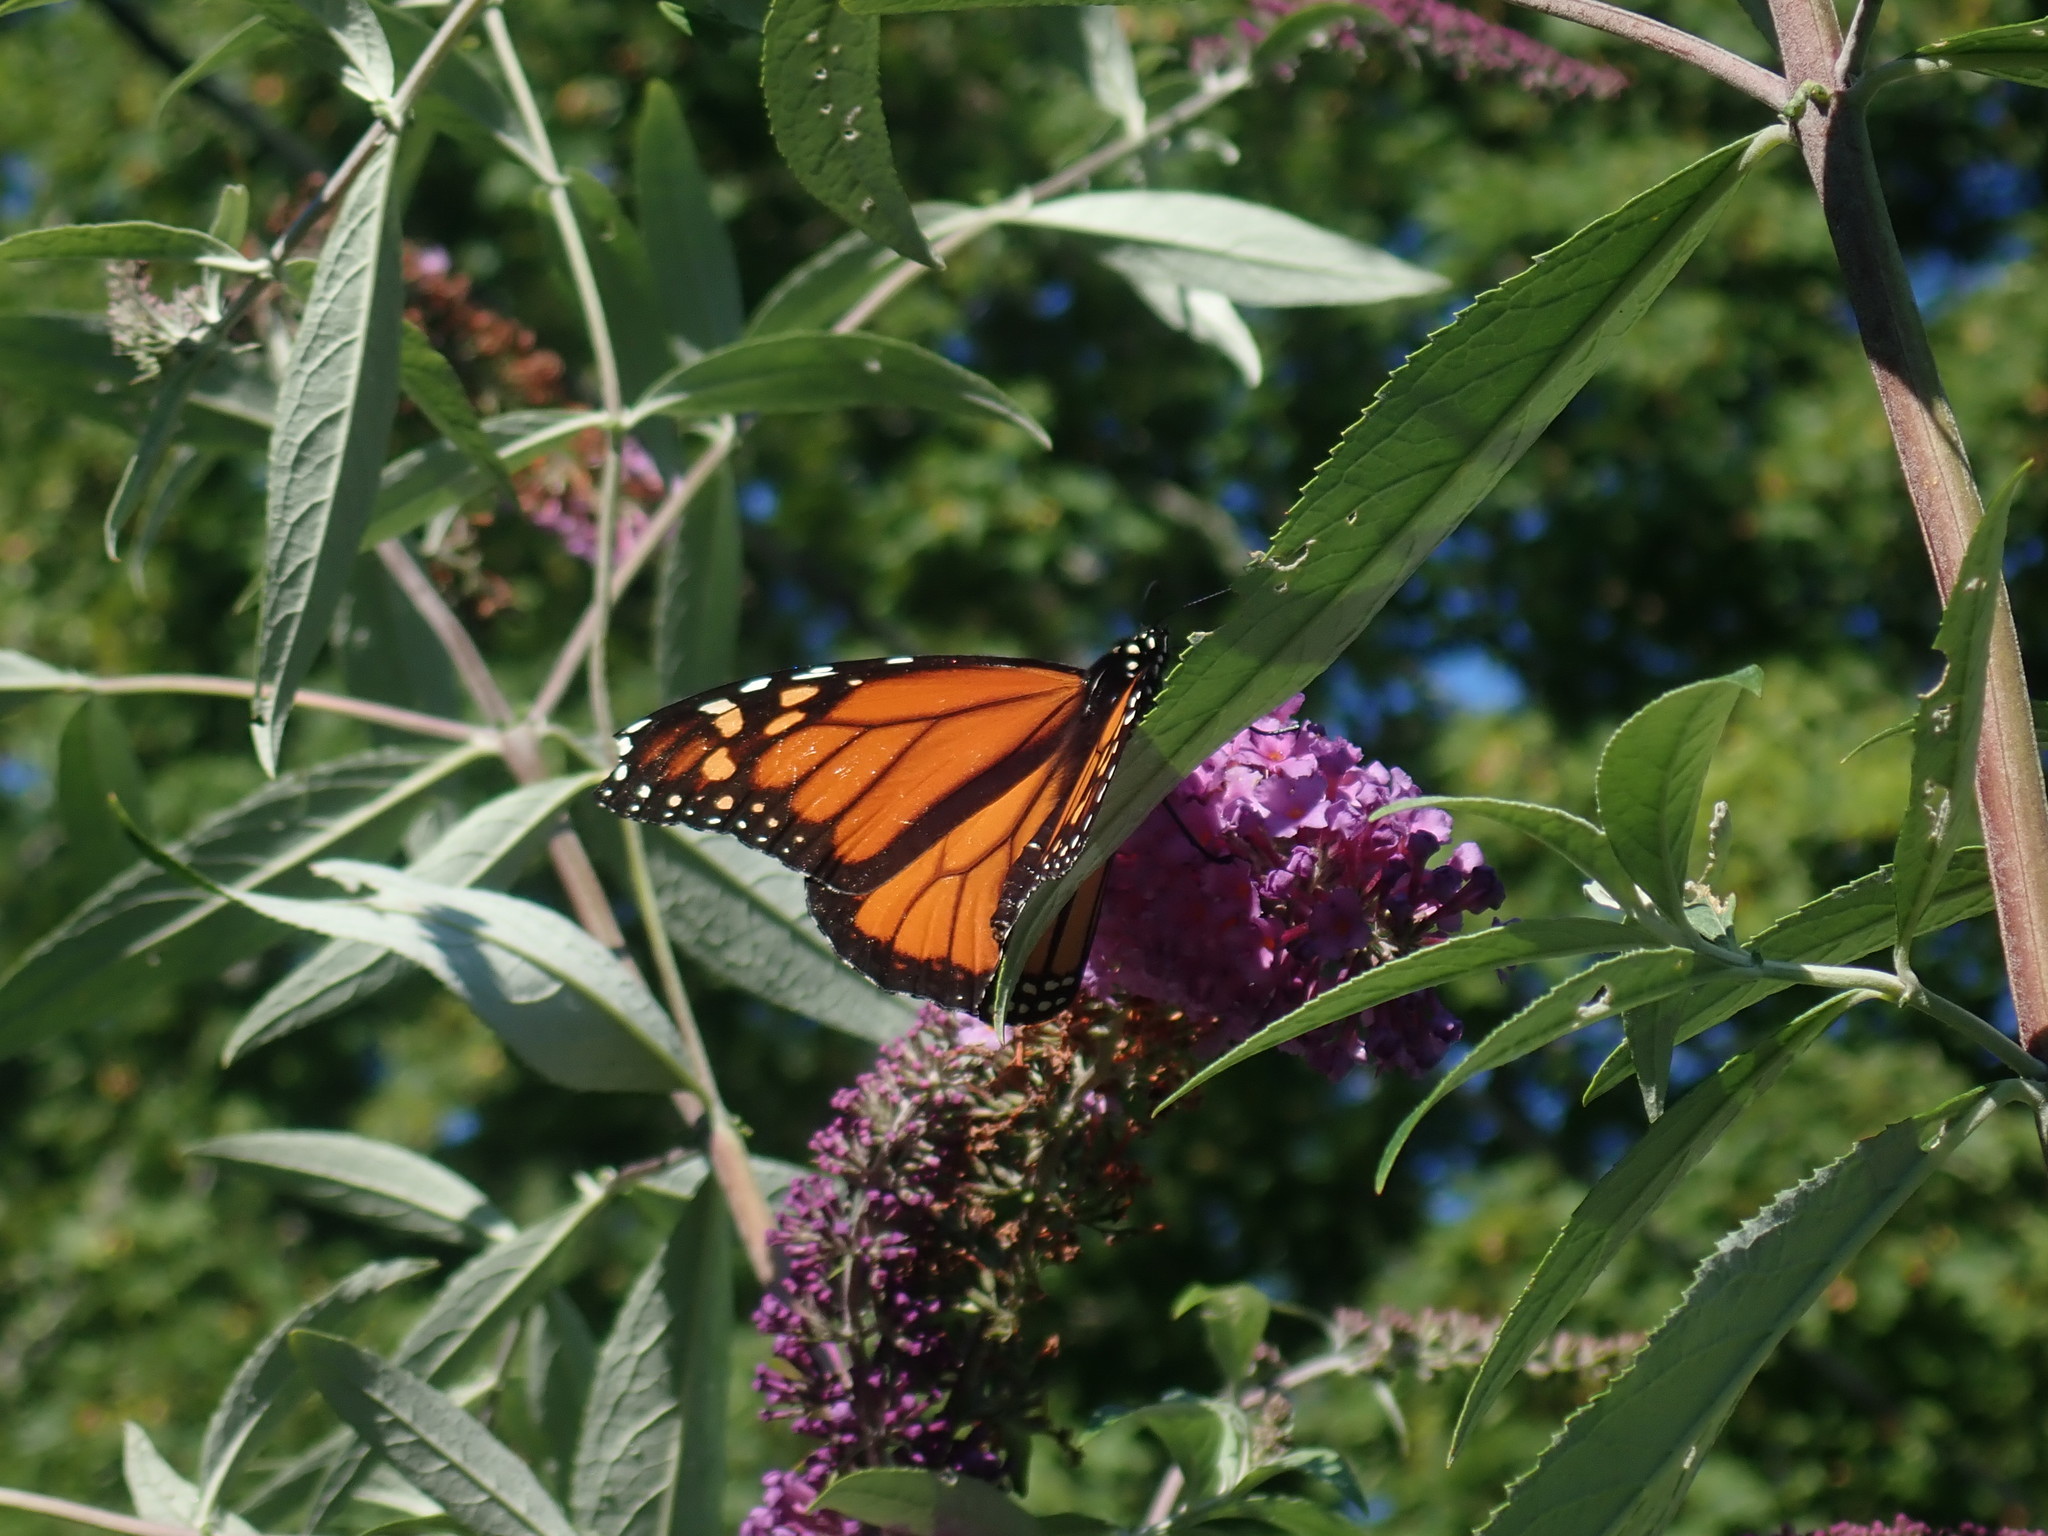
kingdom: Animalia
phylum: Arthropoda
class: Insecta
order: Lepidoptera
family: Nymphalidae
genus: Danaus
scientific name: Danaus plexippus
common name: Monarch
